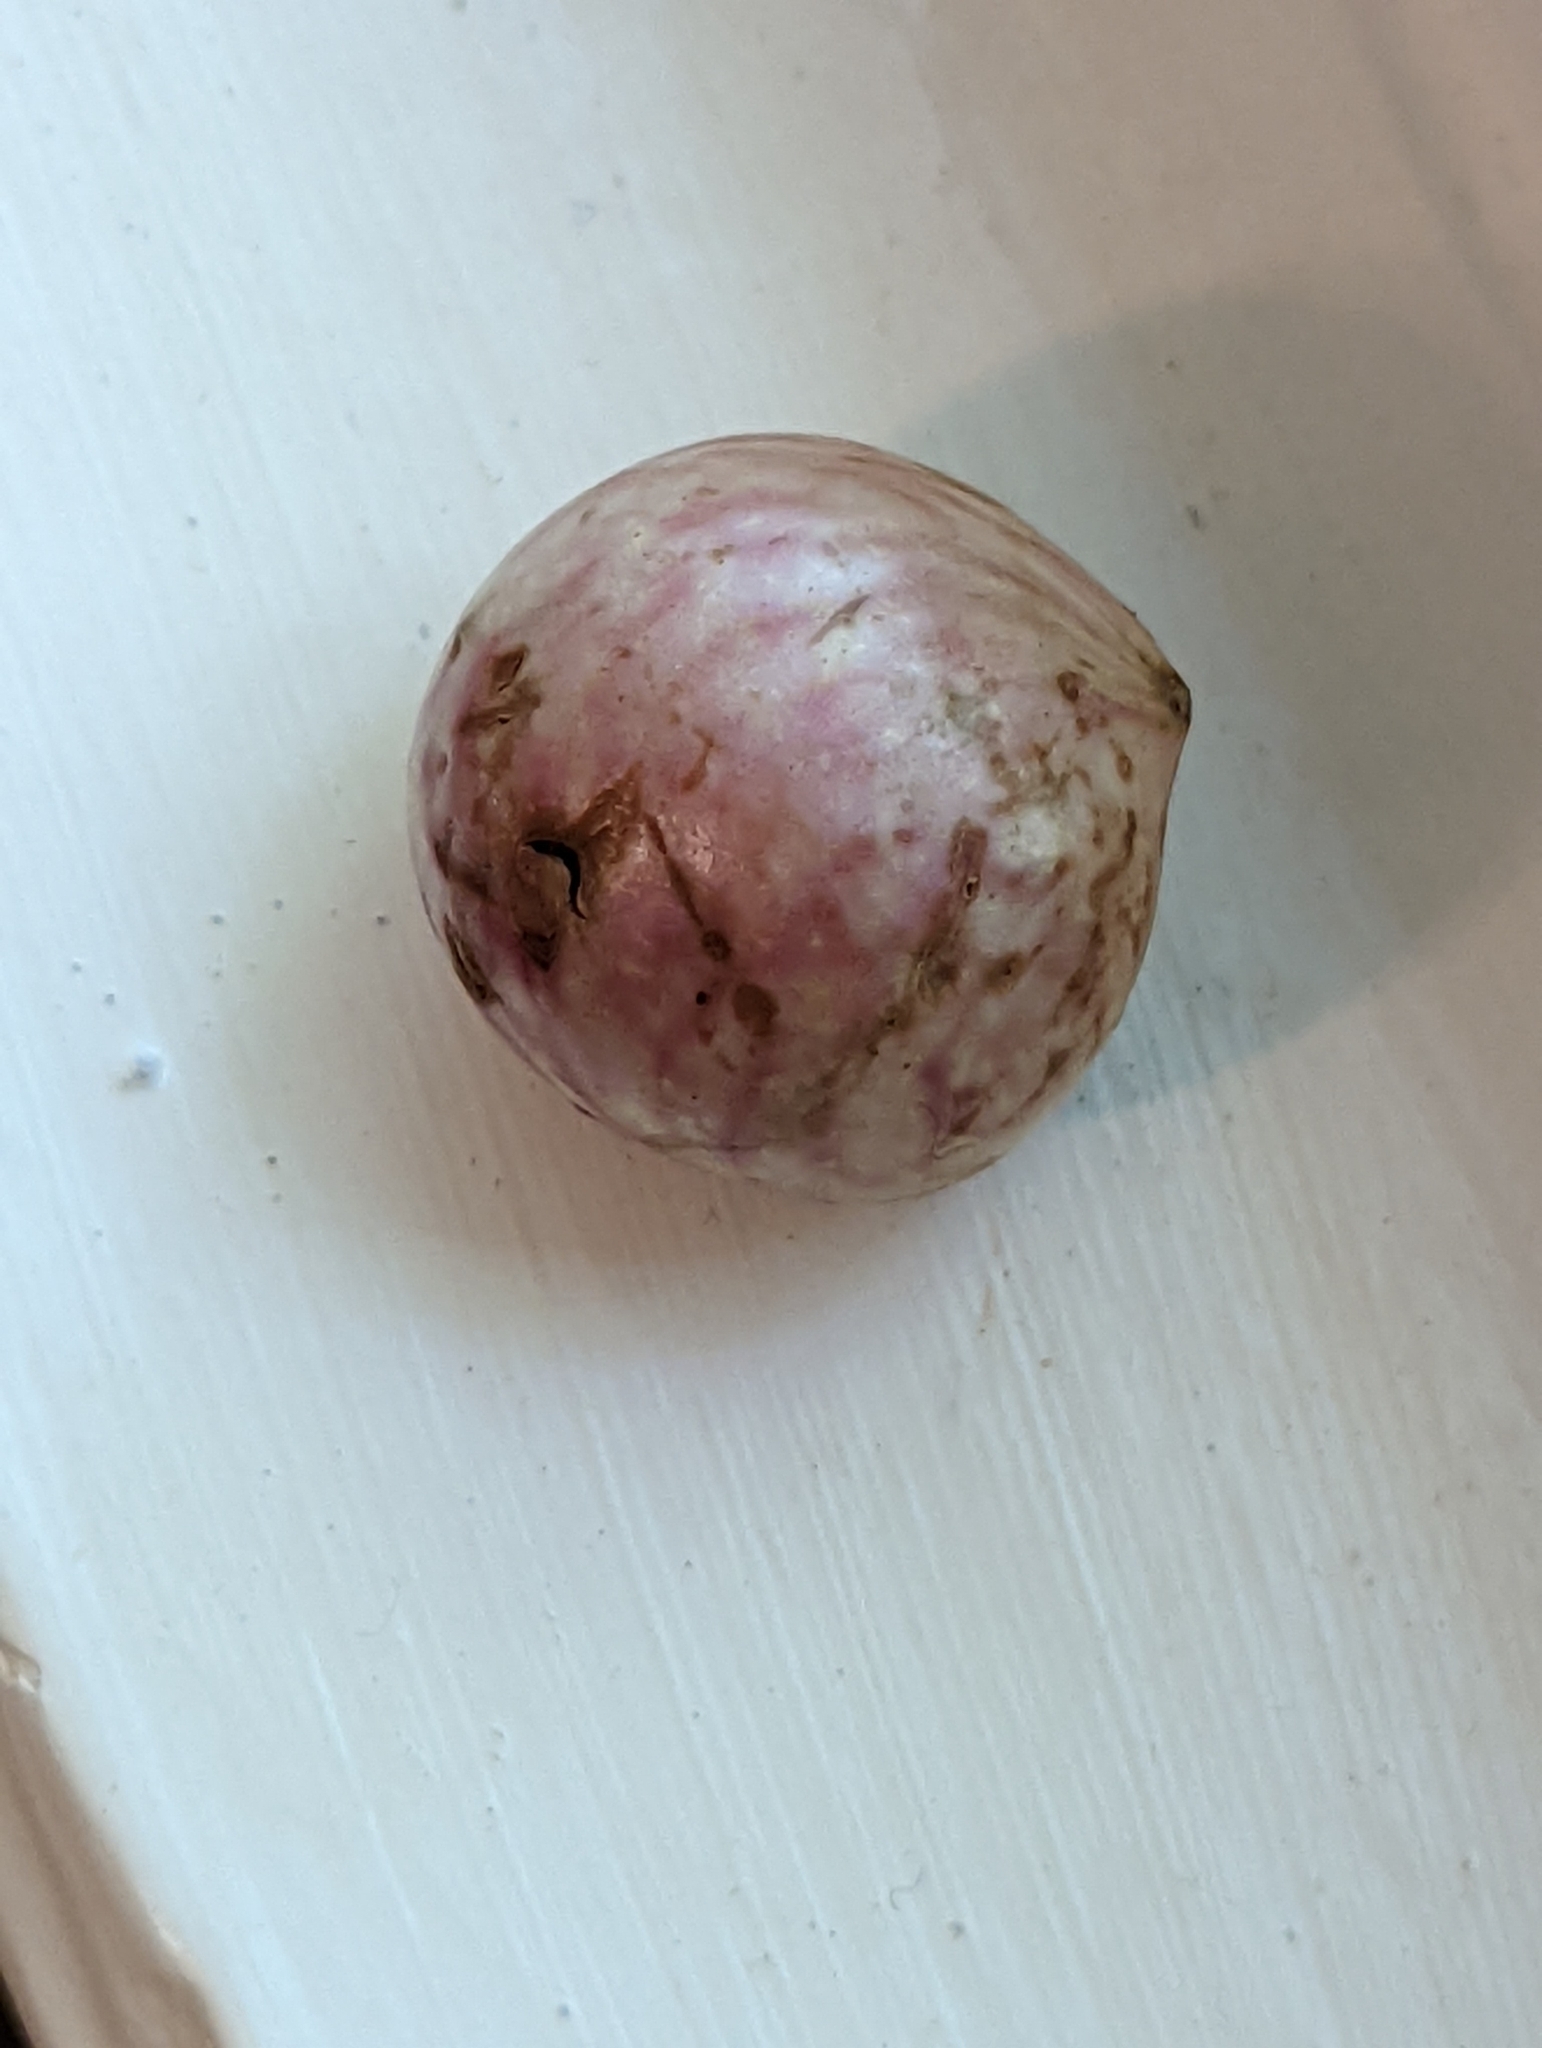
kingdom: Animalia
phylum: Arthropoda
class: Insecta
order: Hymenoptera
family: Cynipidae
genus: Amphibolips
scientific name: Amphibolips
